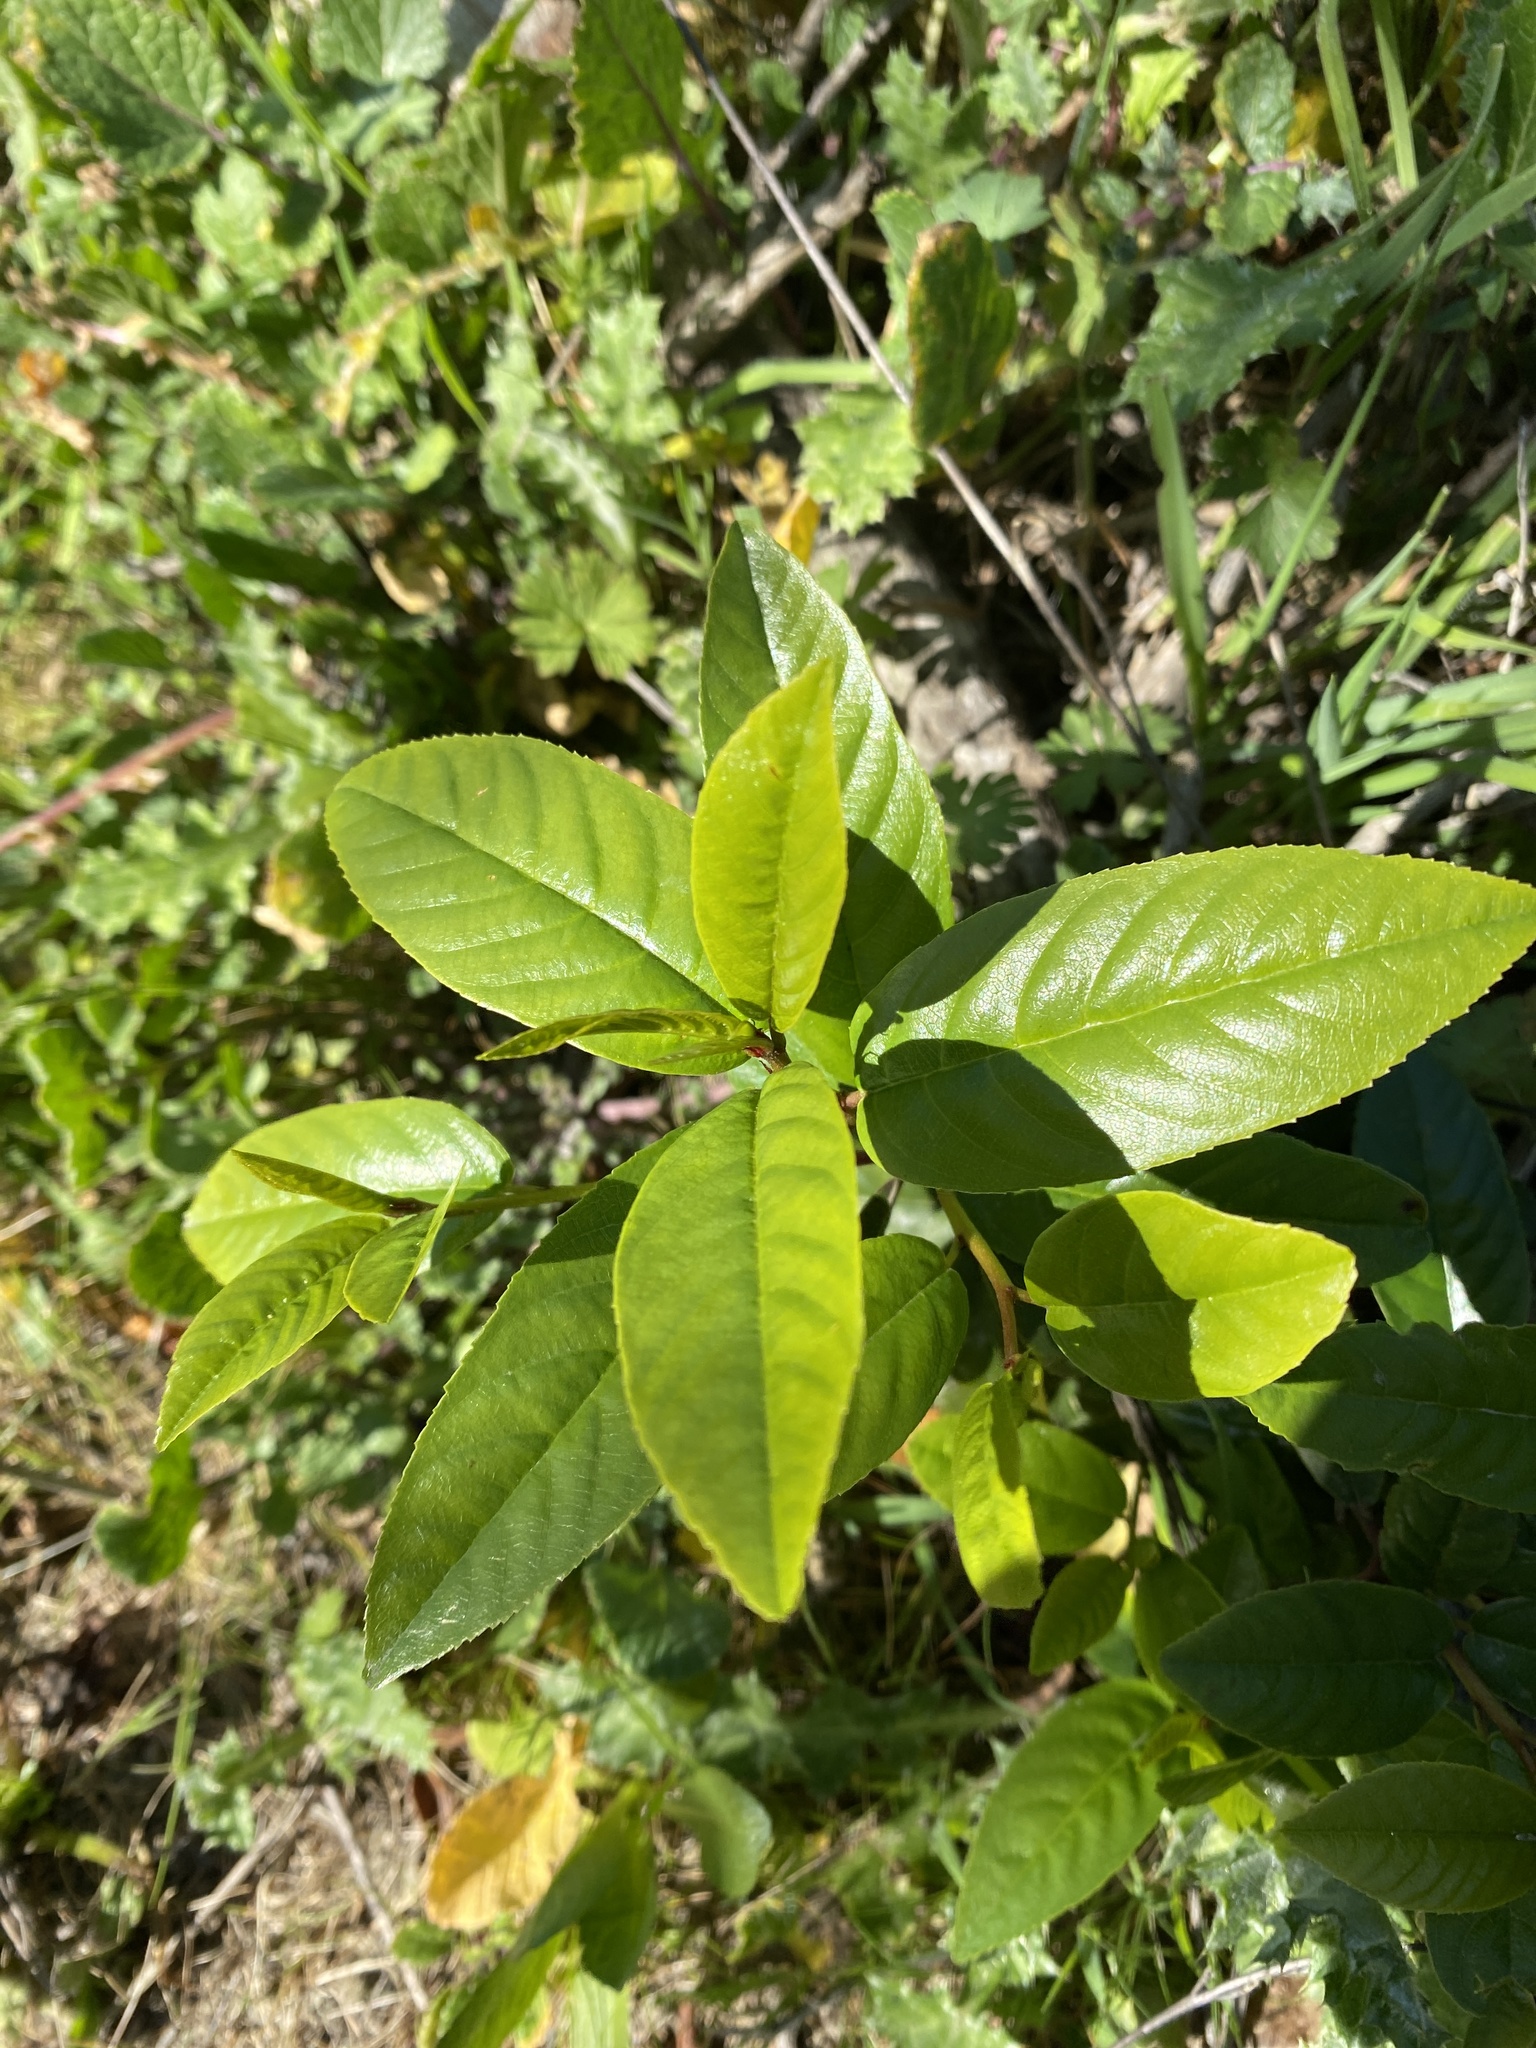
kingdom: Plantae
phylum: Tracheophyta
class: Magnoliopsida
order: Rosales
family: Rhamnaceae
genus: Frangula
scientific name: Frangula californica
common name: California buckthorn
